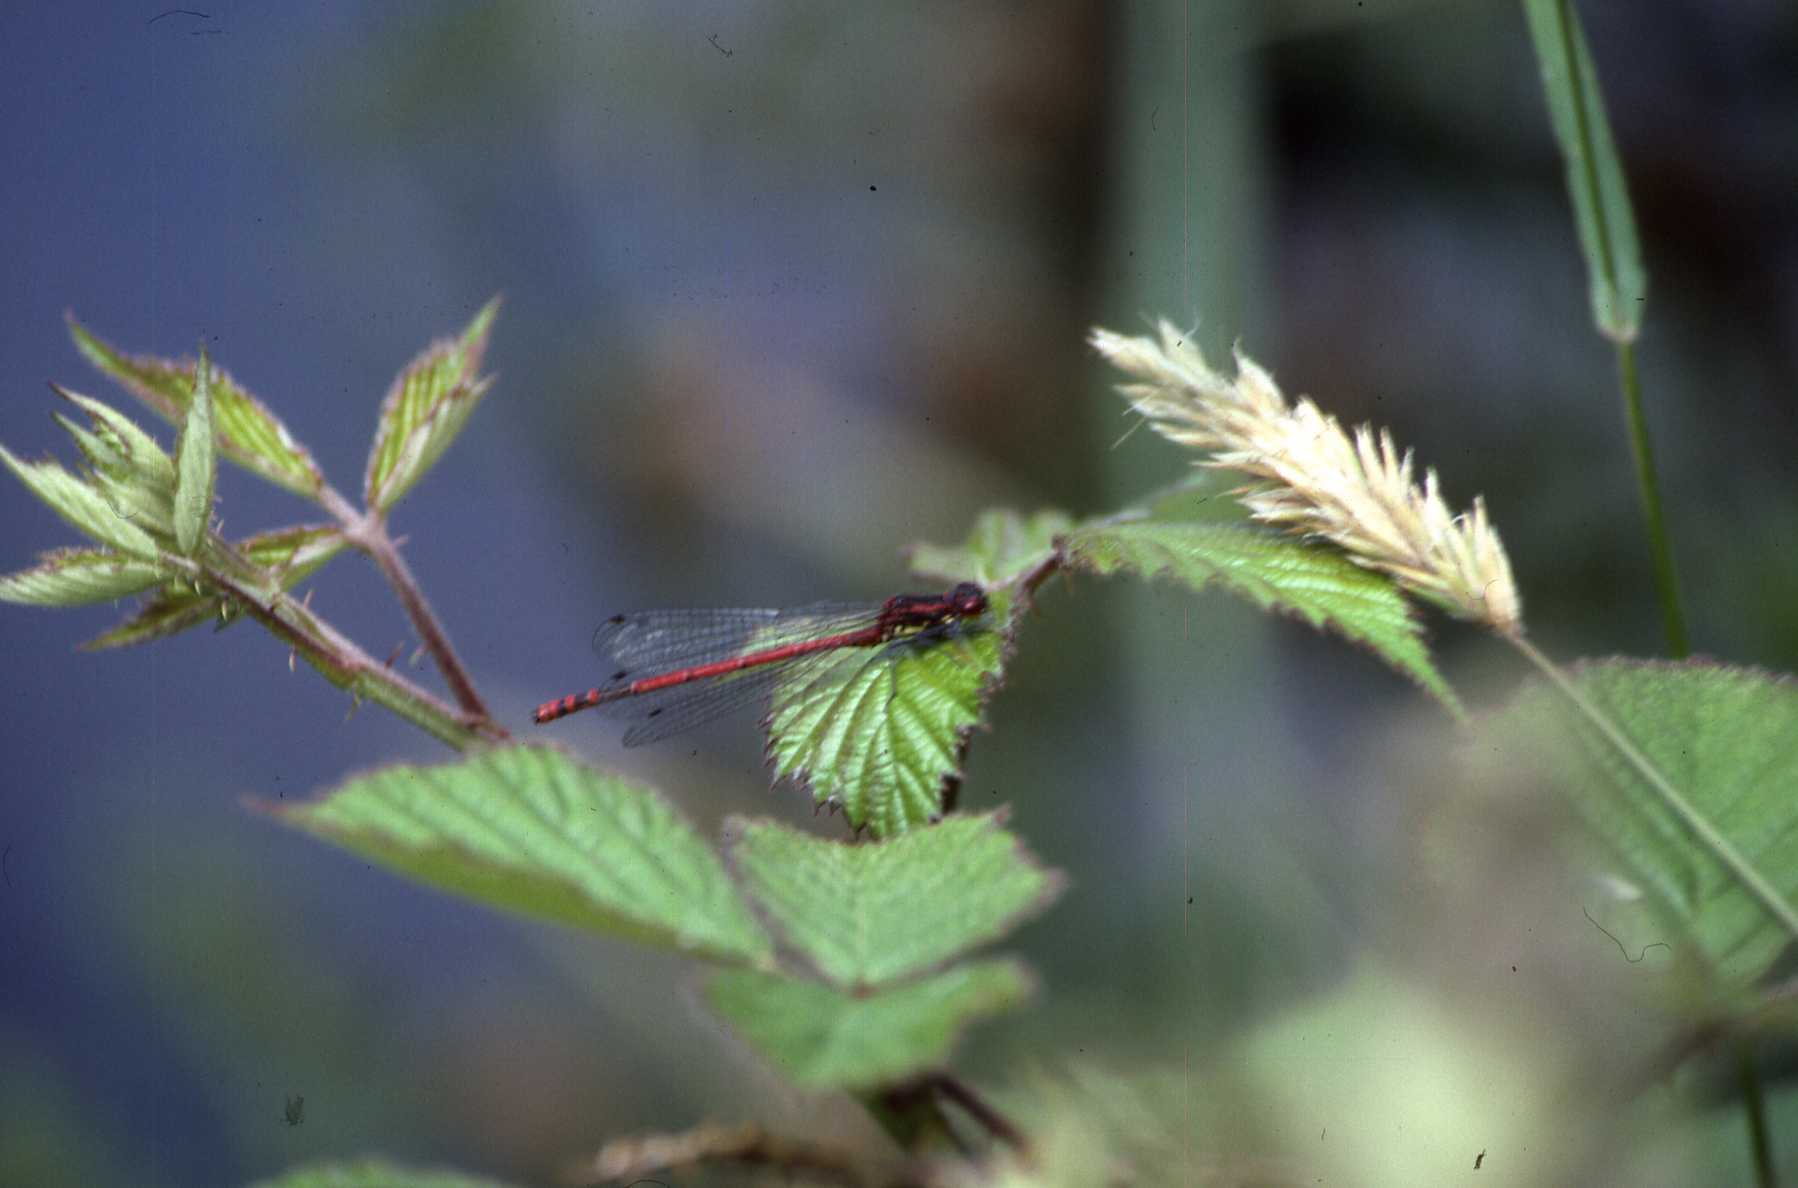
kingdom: Animalia
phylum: Arthropoda
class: Insecta
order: Odonata
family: Coenagrionidae
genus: Pyrrhosoma
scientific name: Pyrrhosoma nymphula
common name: Large red damsel
